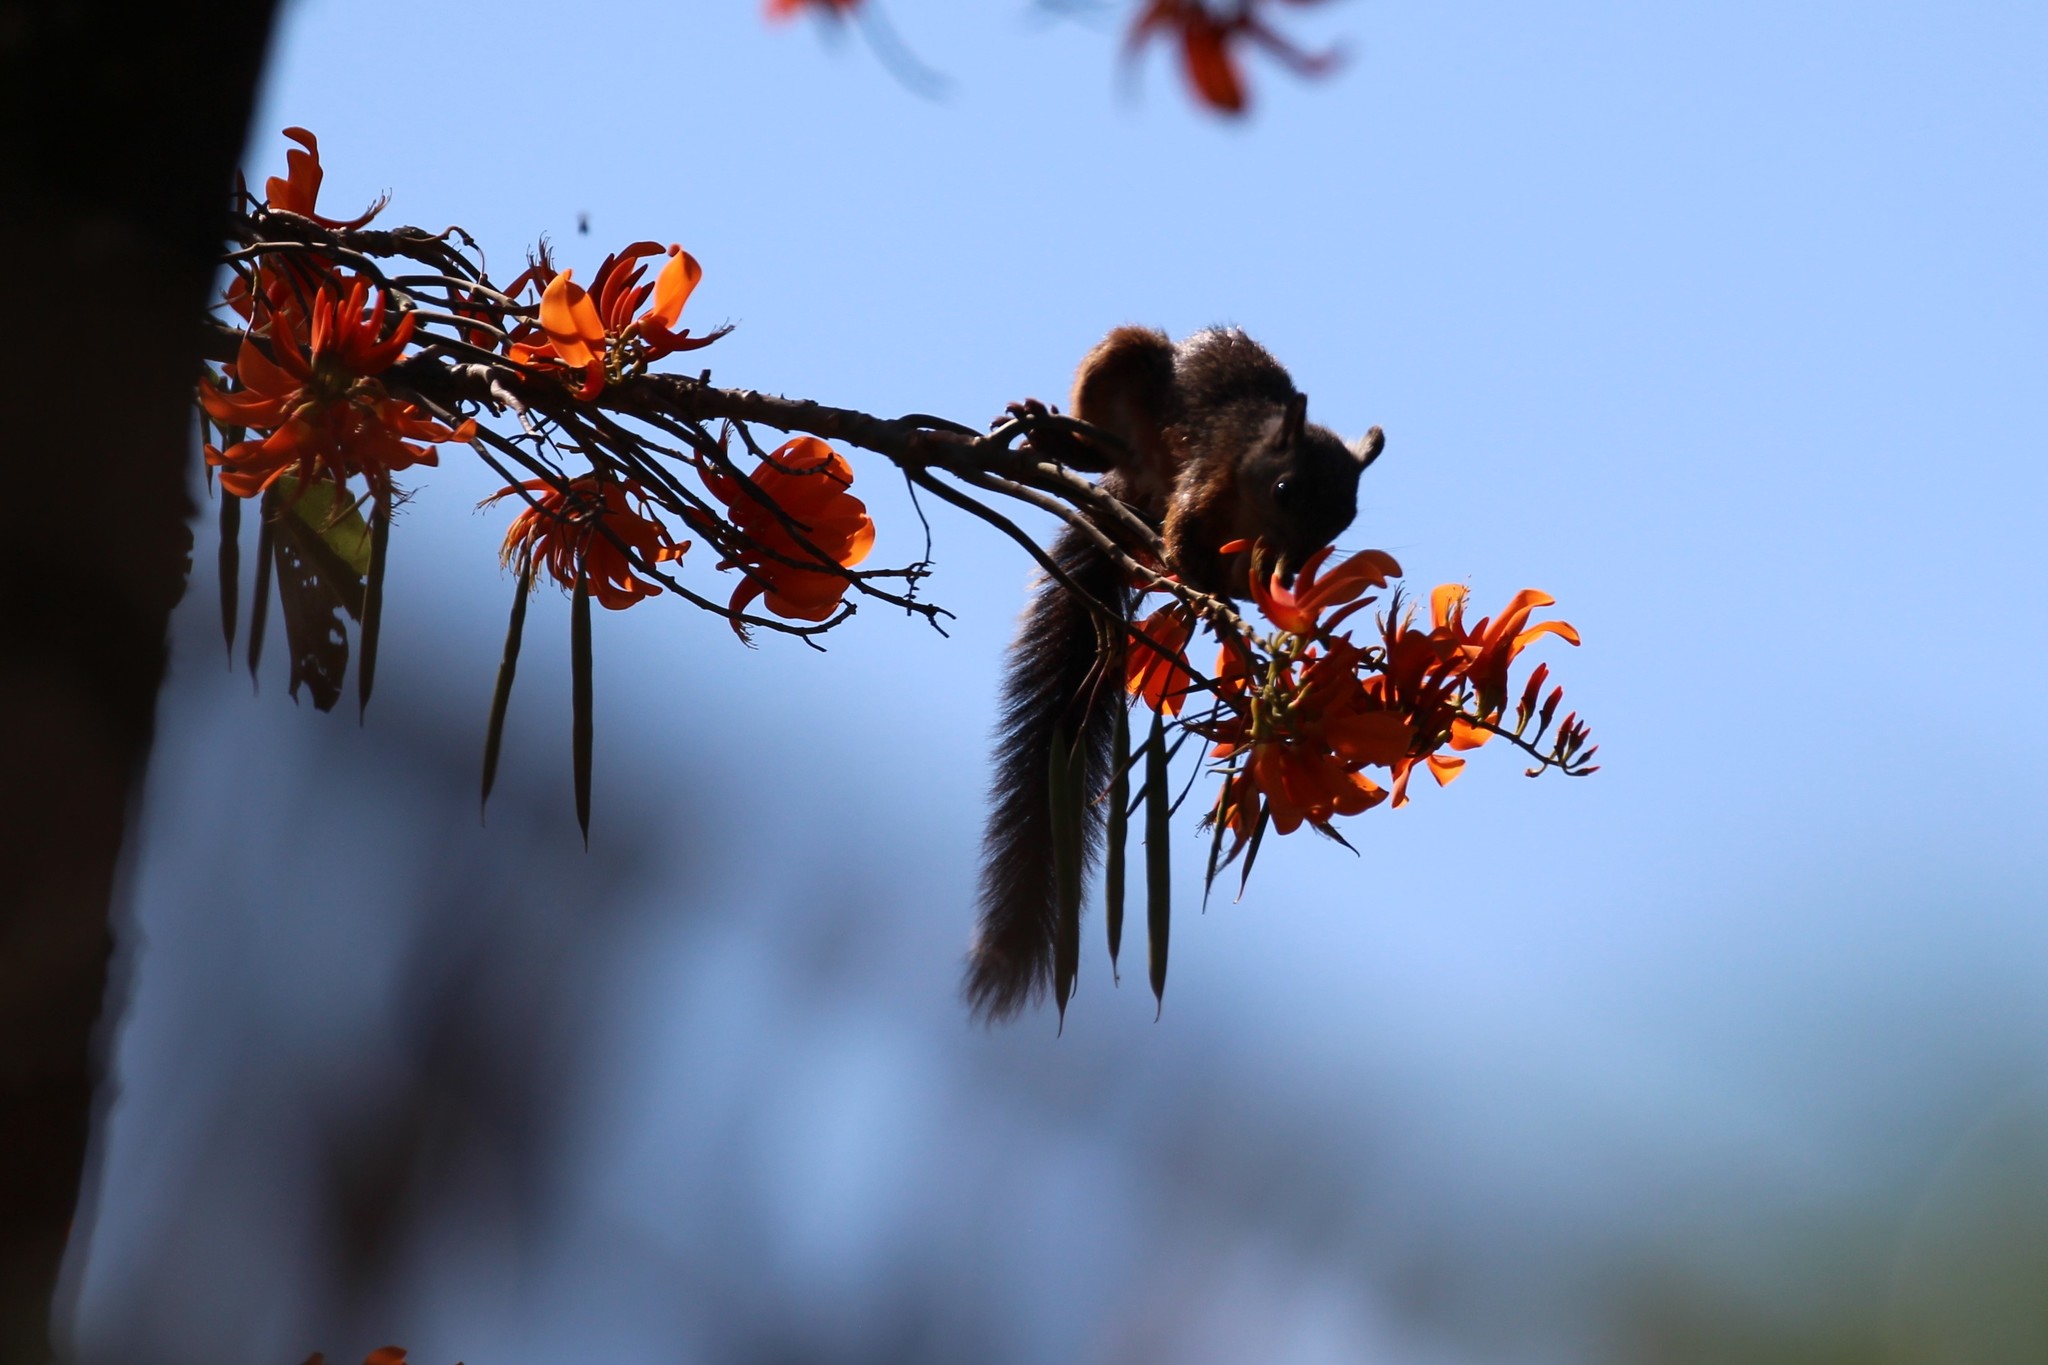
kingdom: Animalia
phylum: Chordata
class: Mammalia
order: Rodentia
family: Sciuridae
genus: Sciurus
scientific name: Sciurus variegatoides
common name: Variegated squirrel
